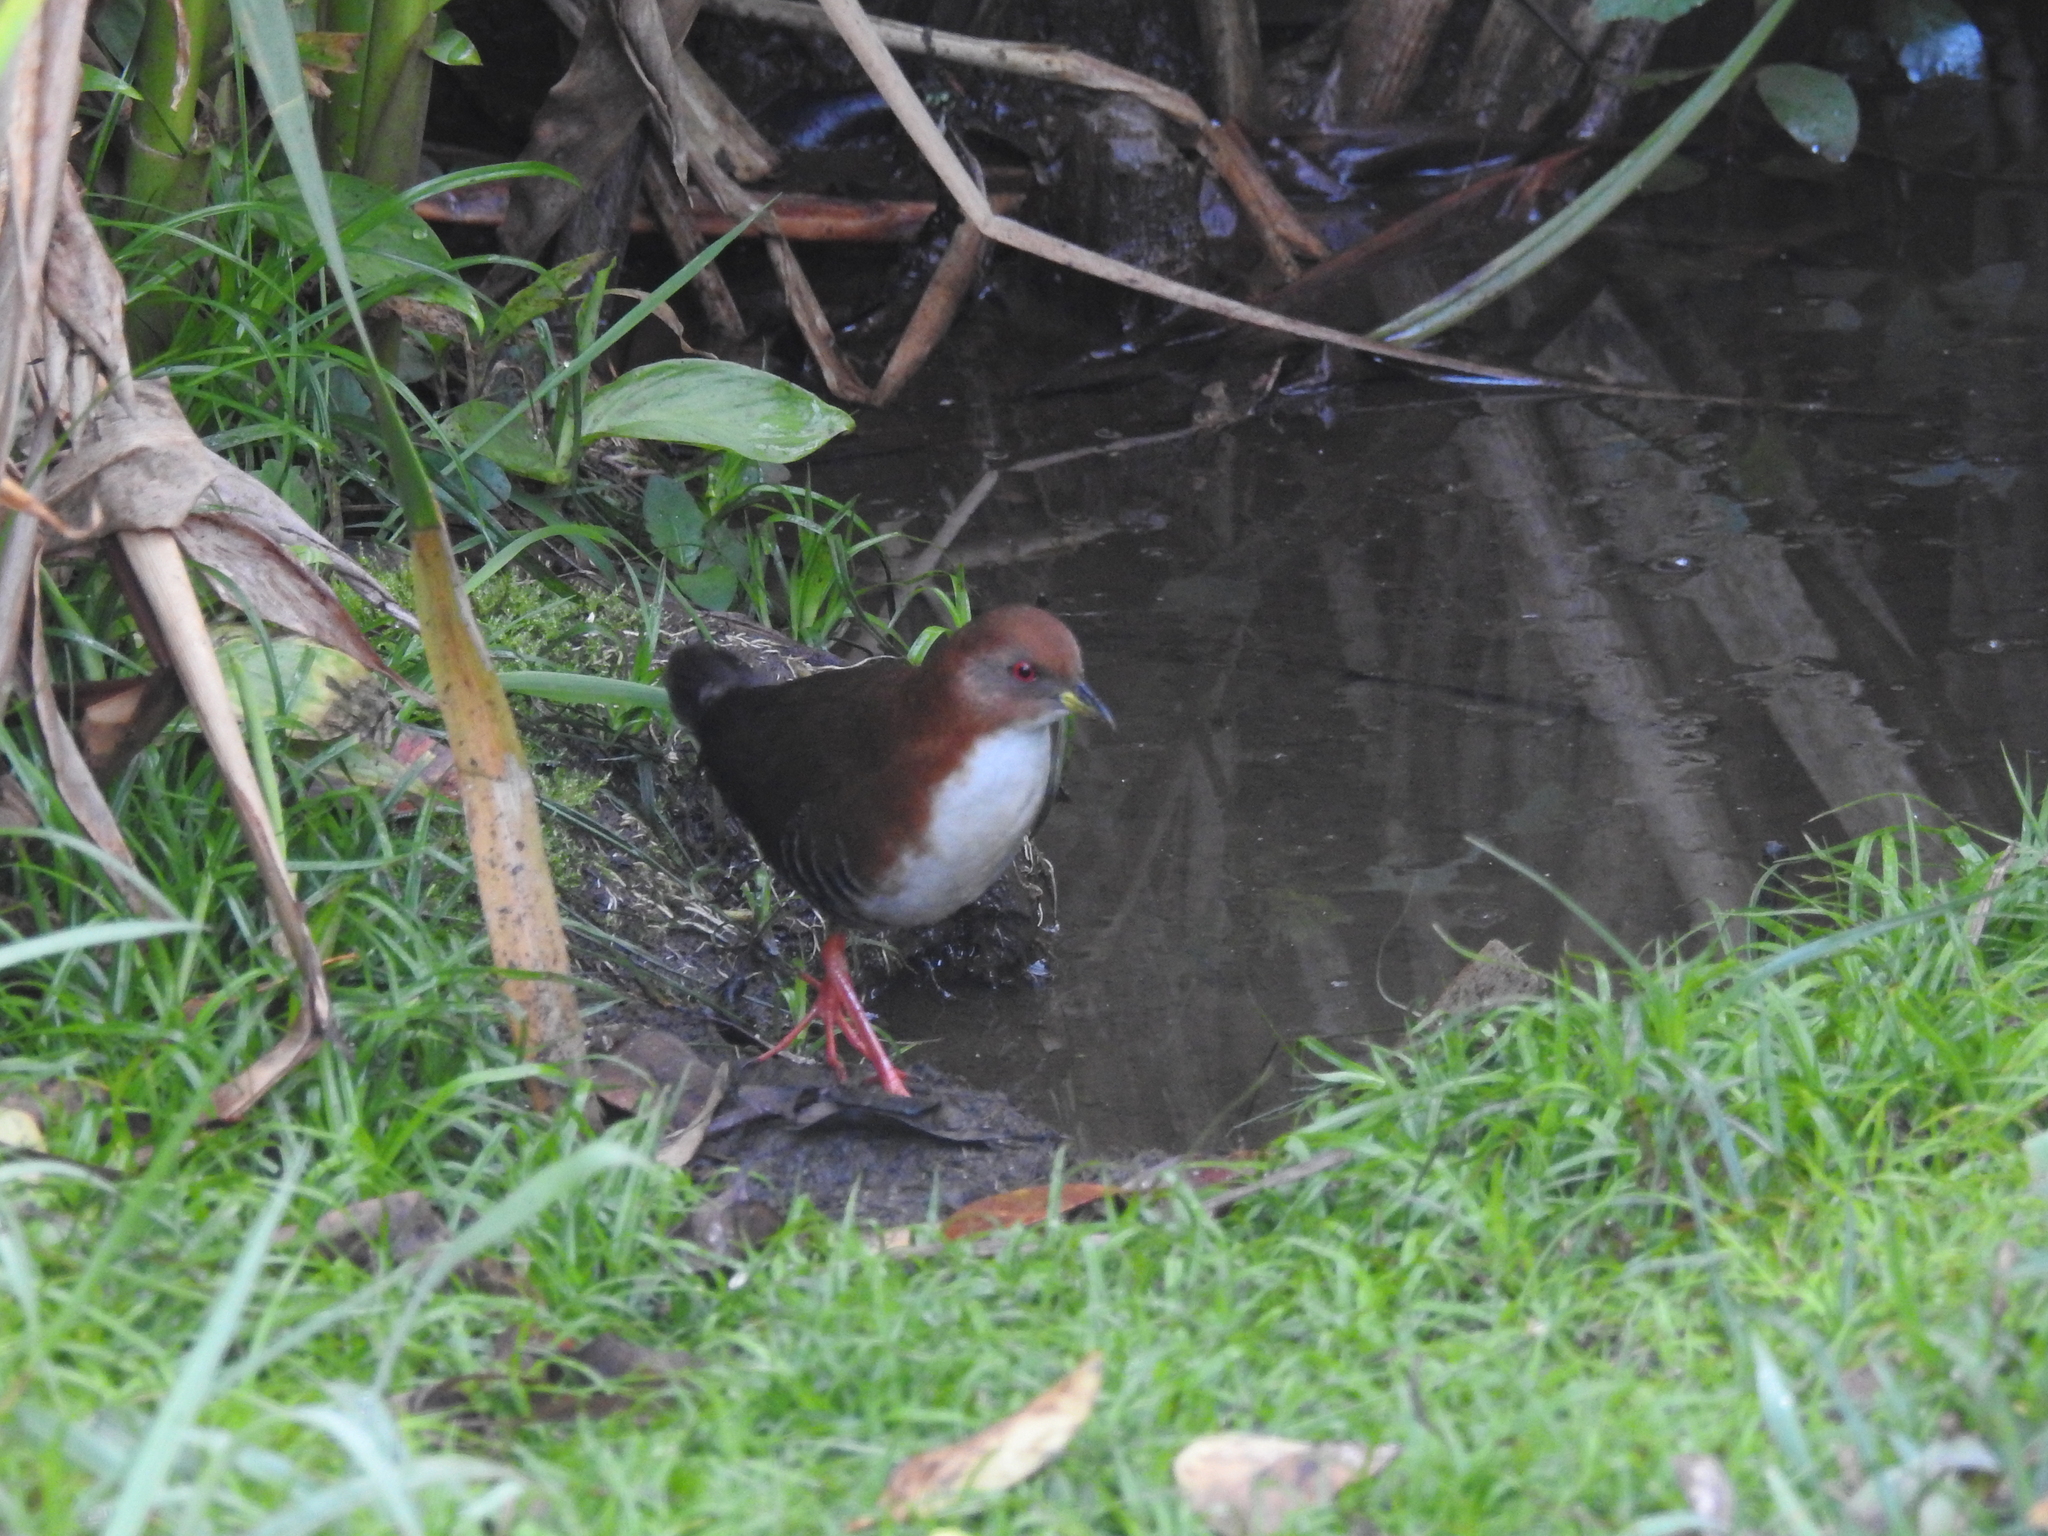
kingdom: Animalia
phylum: Chordata
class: Aves
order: Gruiformes
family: Rallidae
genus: Laterallus
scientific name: Laterallus leucopyrrhus
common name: Red-and-white crake
